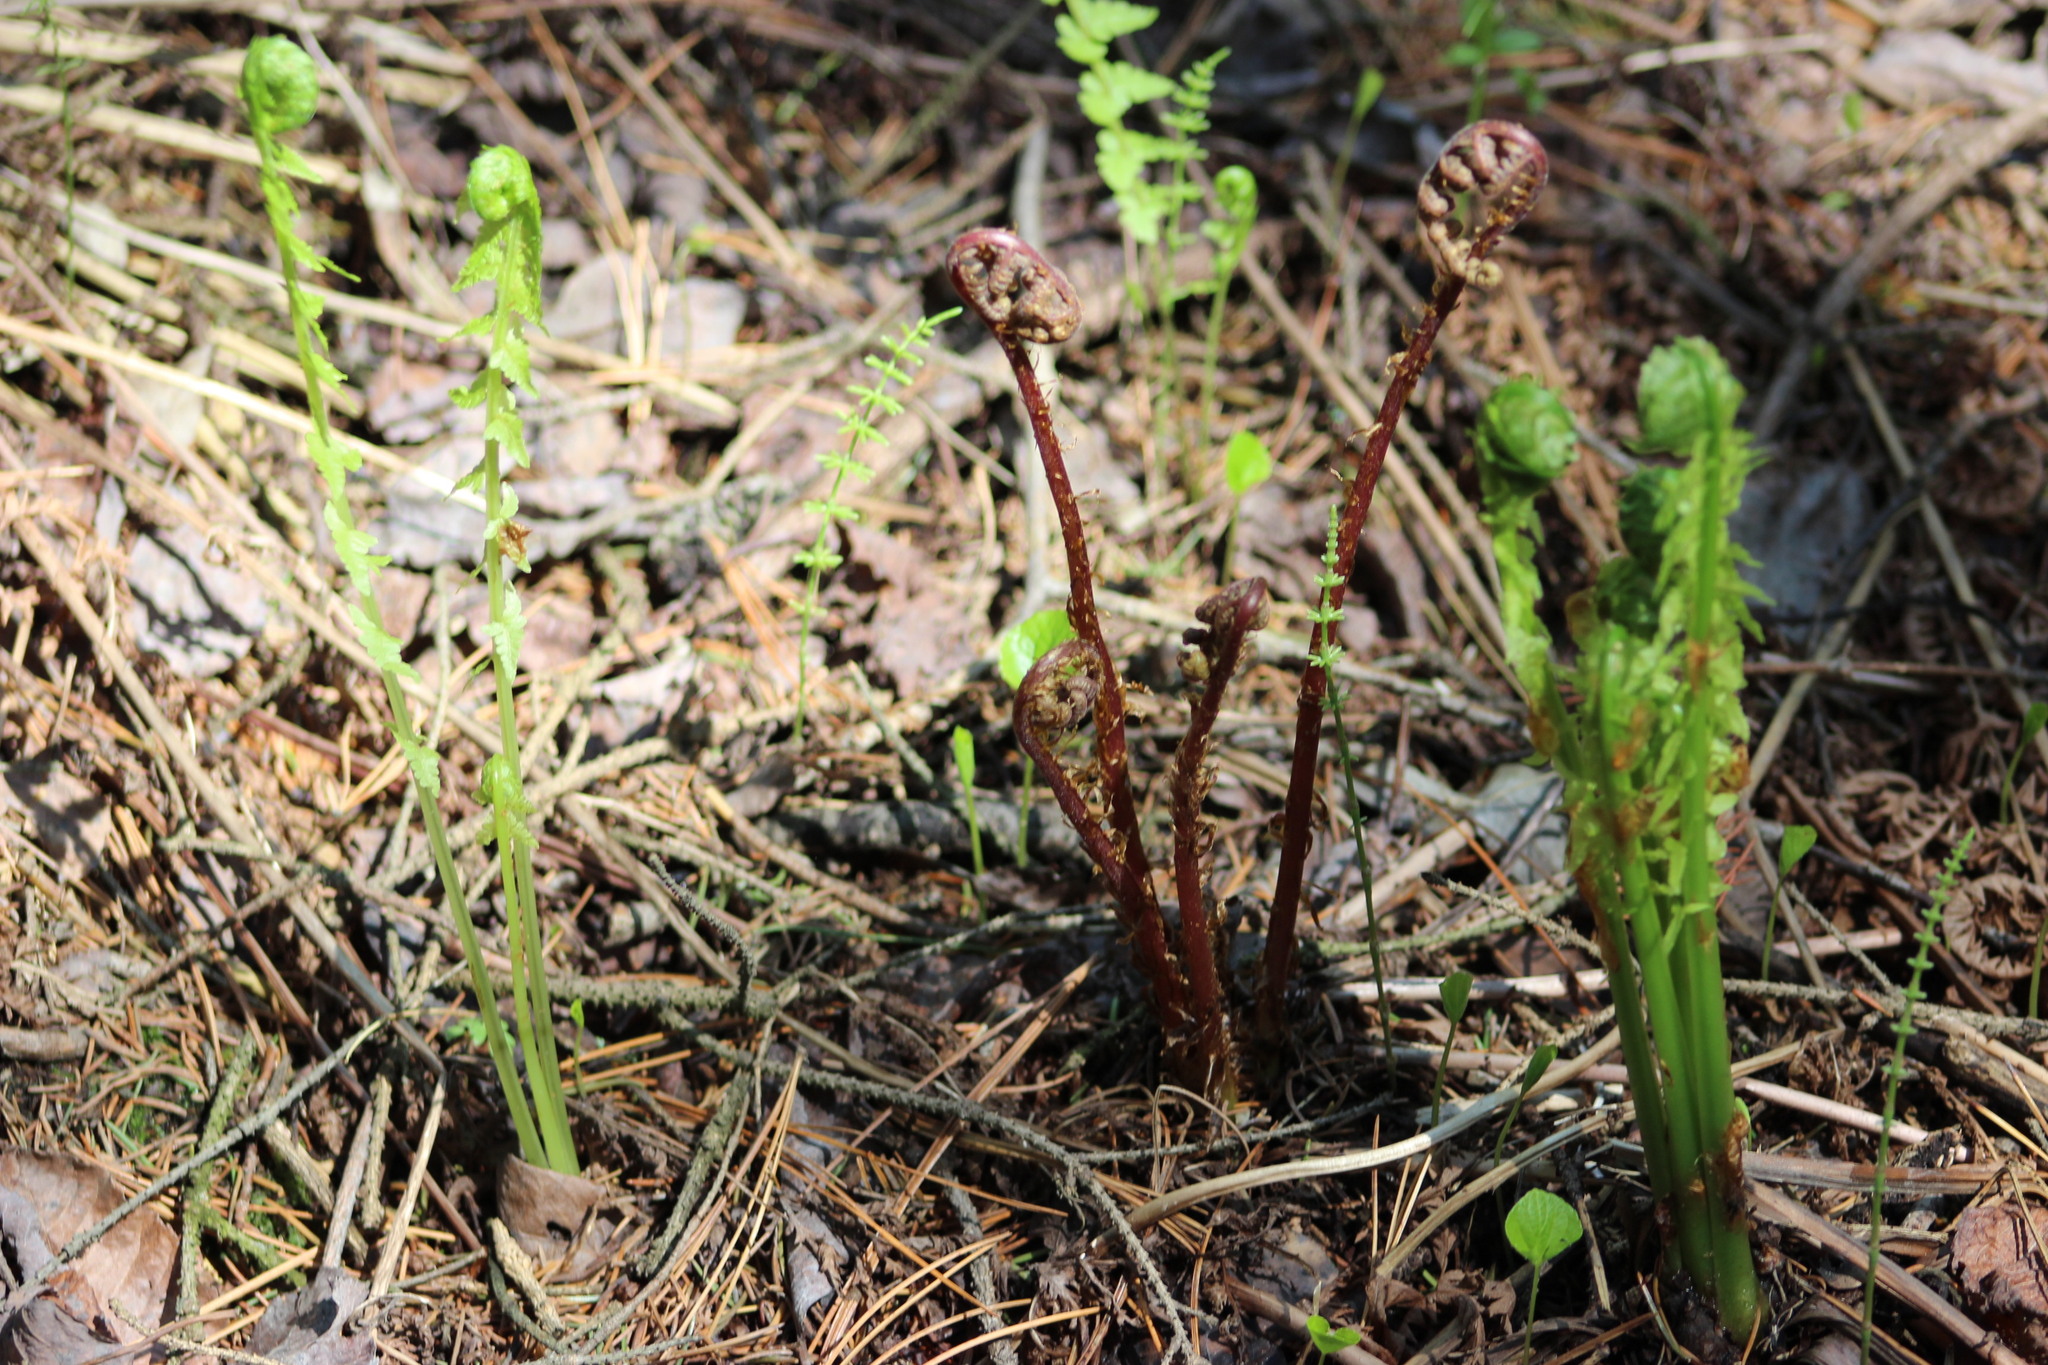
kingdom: Plantae
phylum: Tracheophyta
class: Polypodiopsida
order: Polypodiales
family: Athyriaceae
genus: Athyrium
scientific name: Athyrium filix-femina
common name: Lady fern
